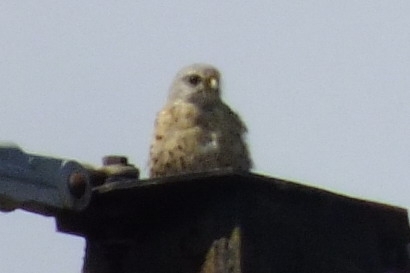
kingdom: Animalia
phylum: Chordata
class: Aves
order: Falconiformes
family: Falconidae
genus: Falco
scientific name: Falco tinnunculus
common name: Common kestrel
